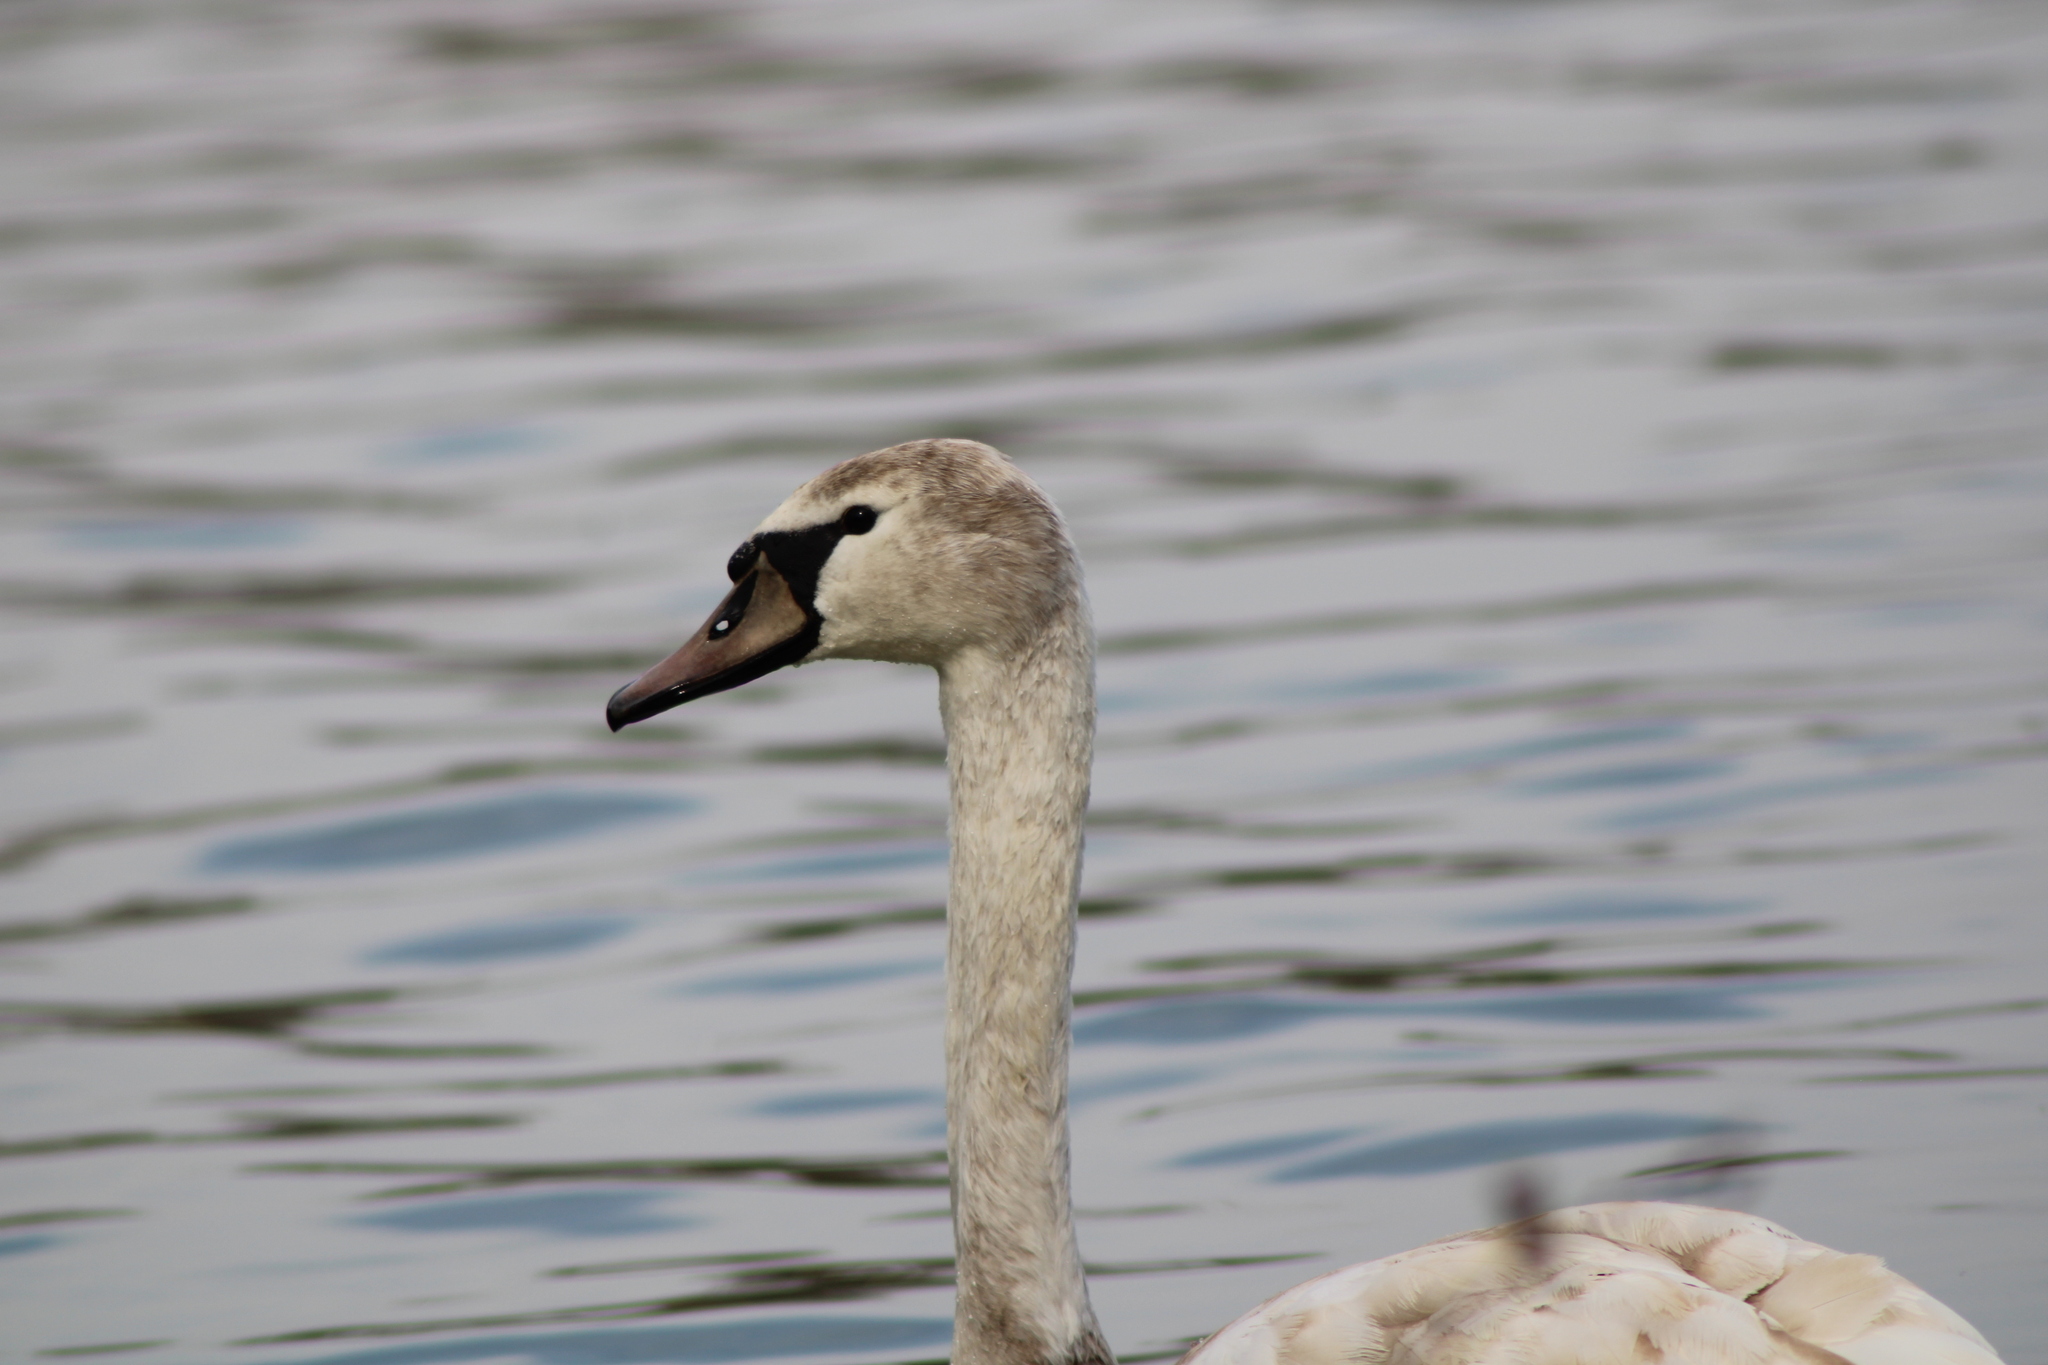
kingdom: Animalia
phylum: Chordata
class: Aves
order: Anseriformes
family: Anatidae
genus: Cygnus
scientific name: Cygnus olor
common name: Mute swan
